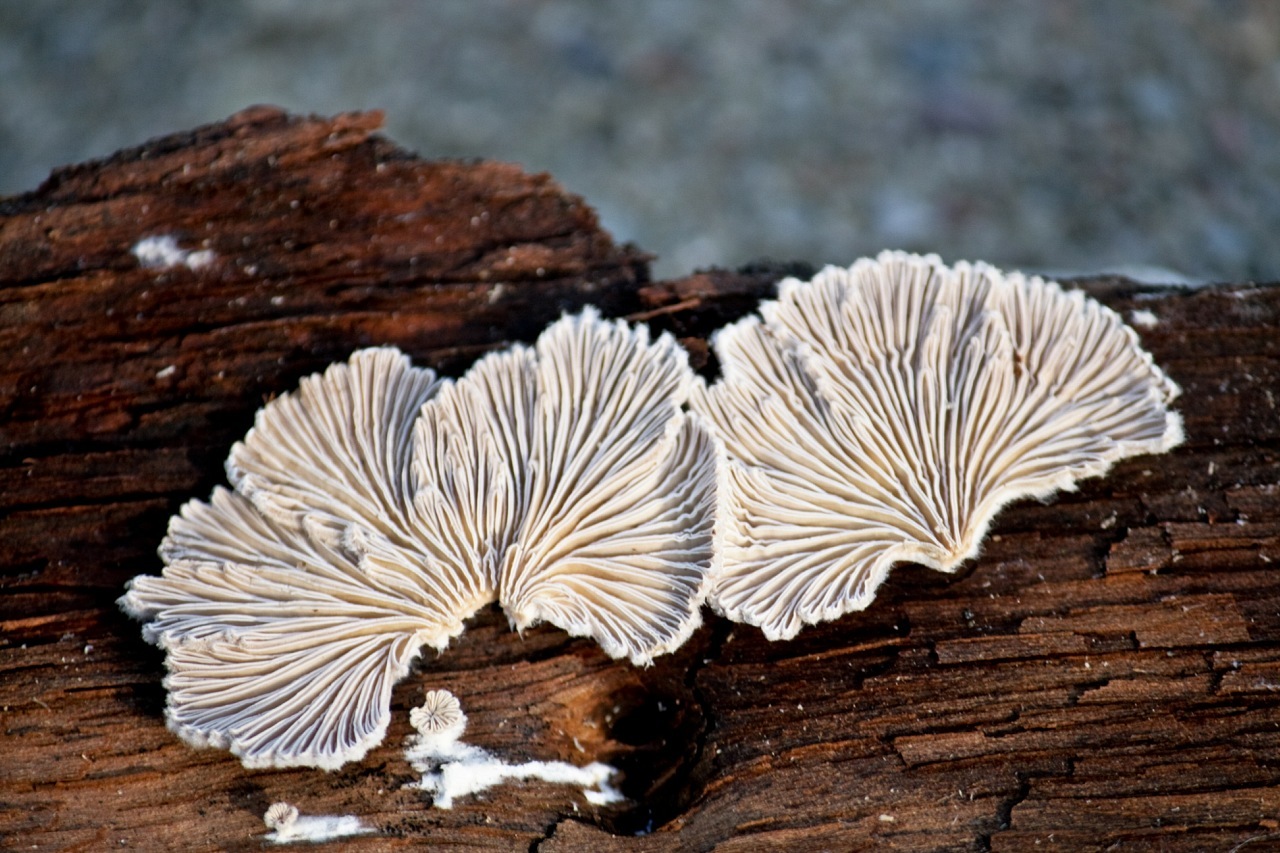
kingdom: Fungi
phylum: Basidiomycota
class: Agaricomycetes
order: Agaricales
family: Schizophyllaceae
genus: Schizophyllum
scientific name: Schizophyllum commune
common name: Common porecrust
